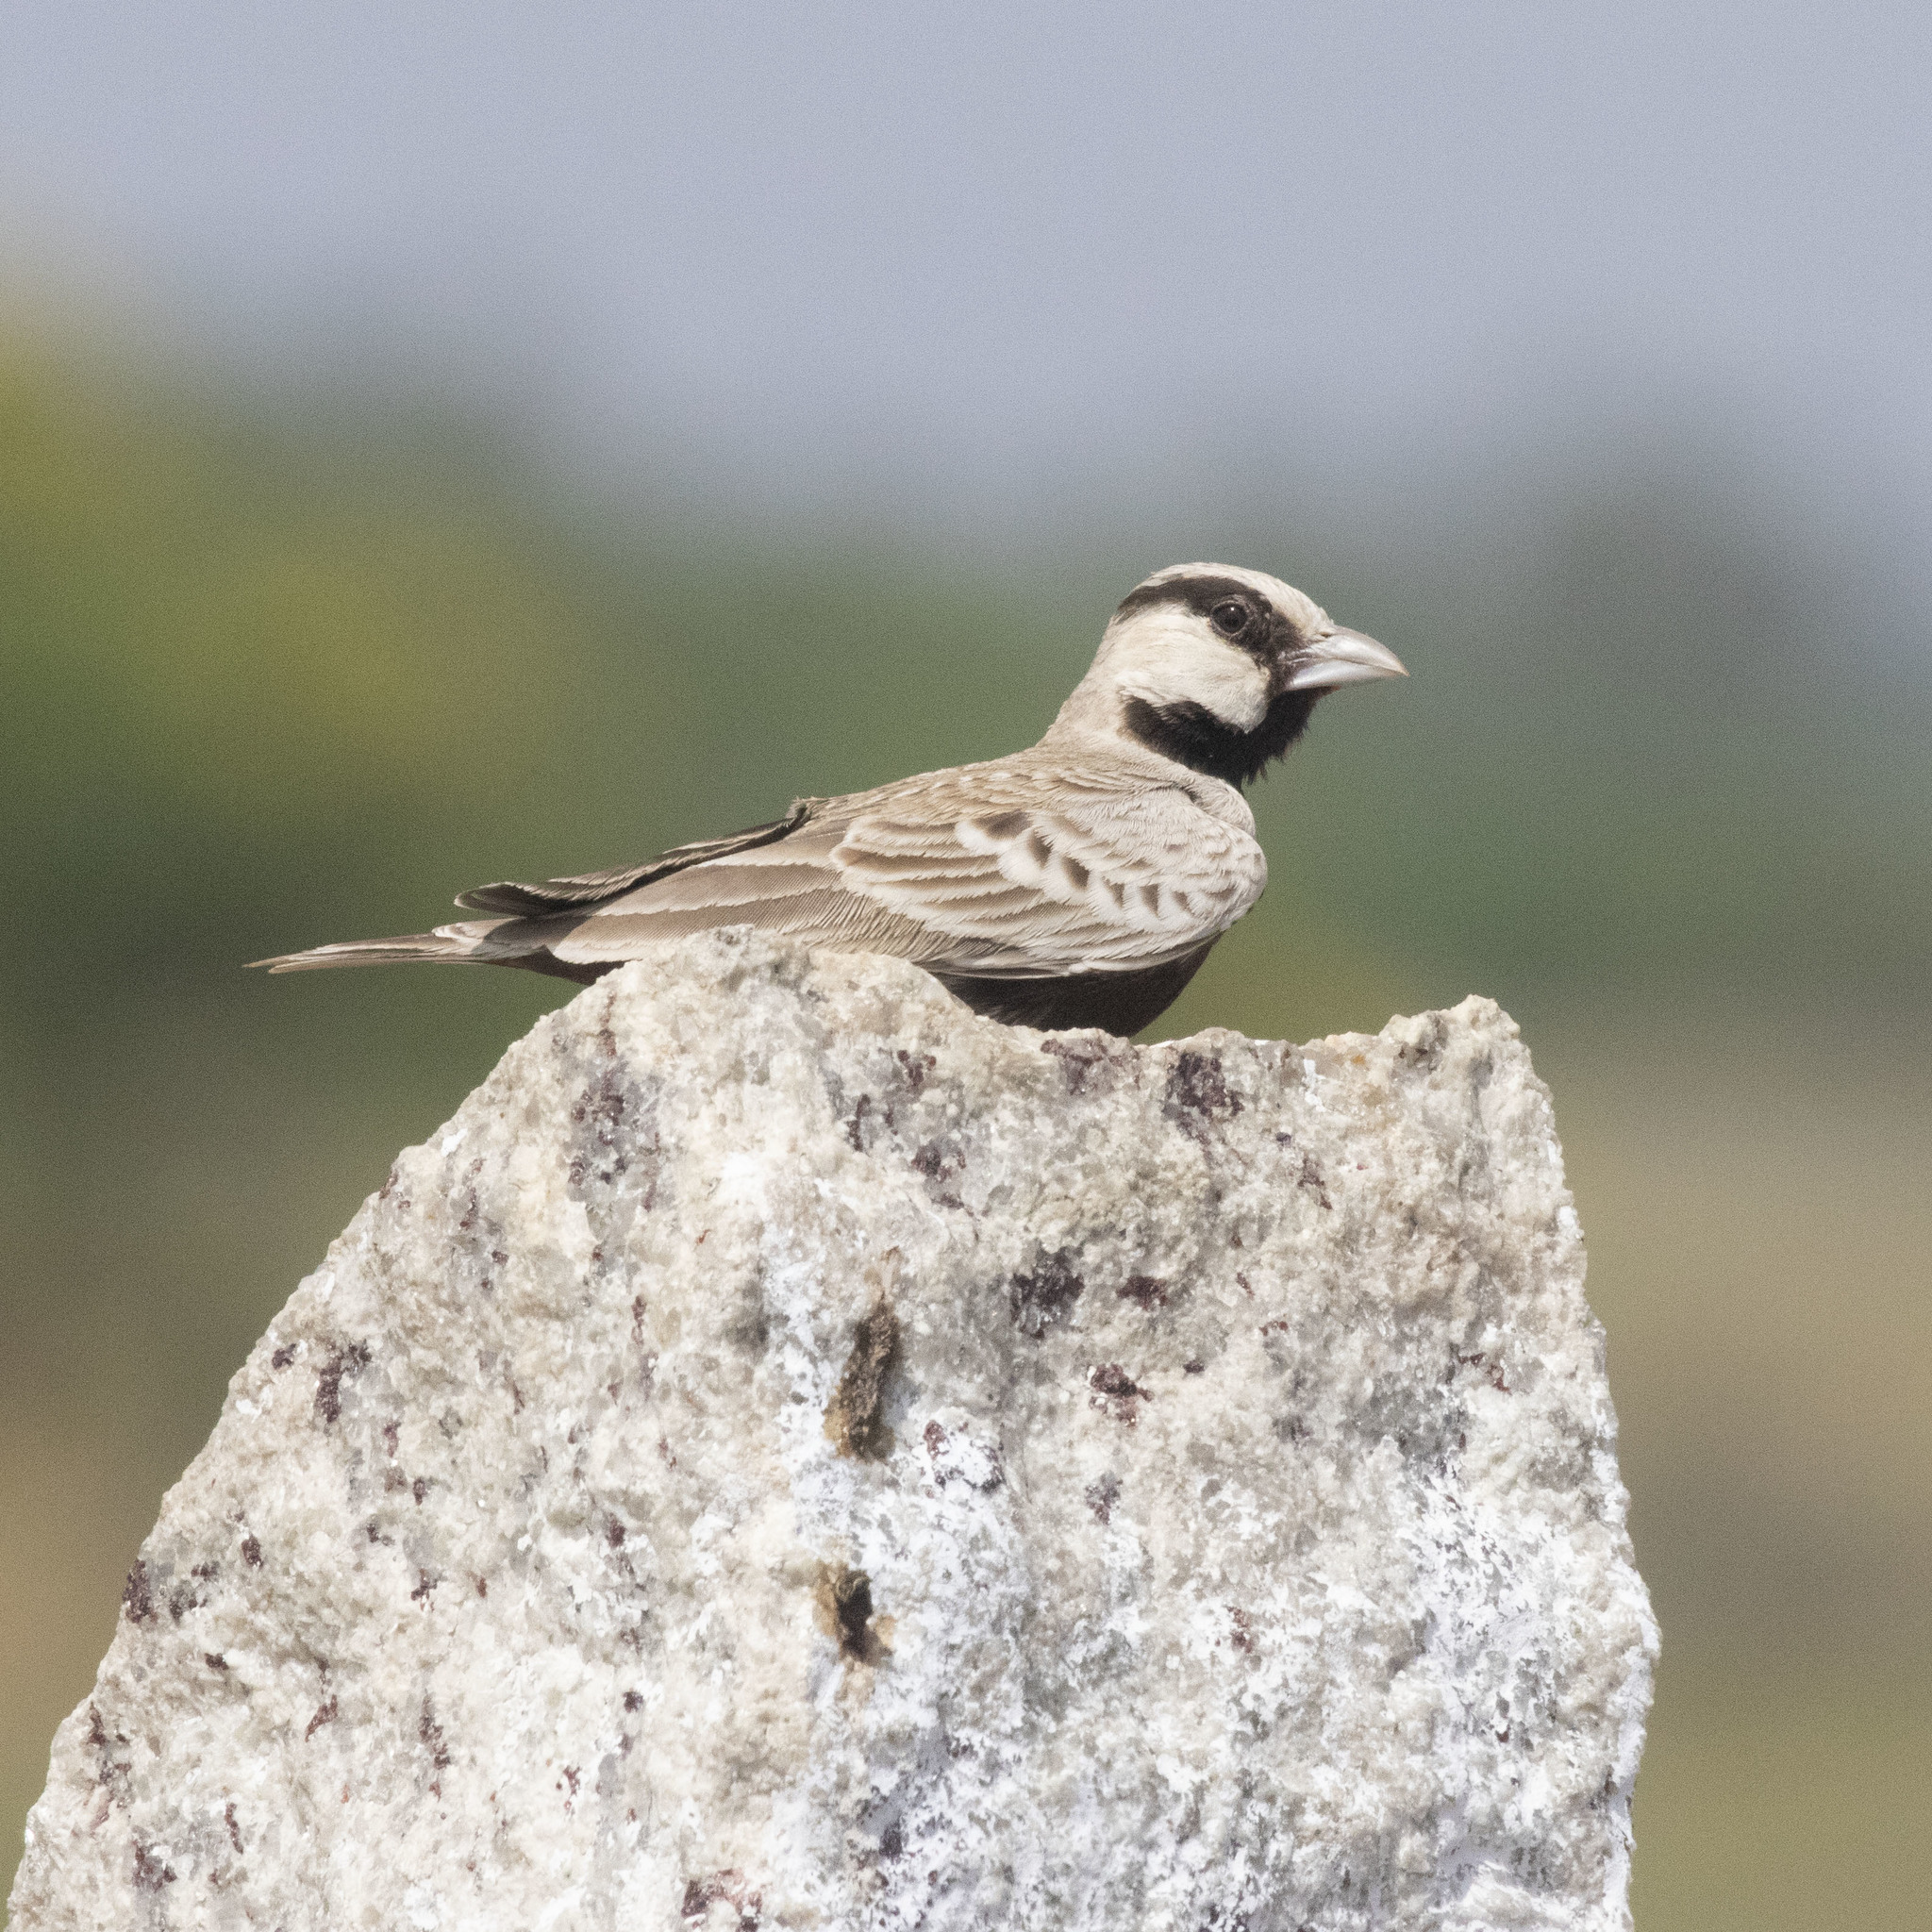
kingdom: Animalia
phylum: Chordata
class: Aves
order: Passeriformes
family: Alaudidae
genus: Eremopterix
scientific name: Eremopterix griseus
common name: Ashy-crowned sparrow-lark
